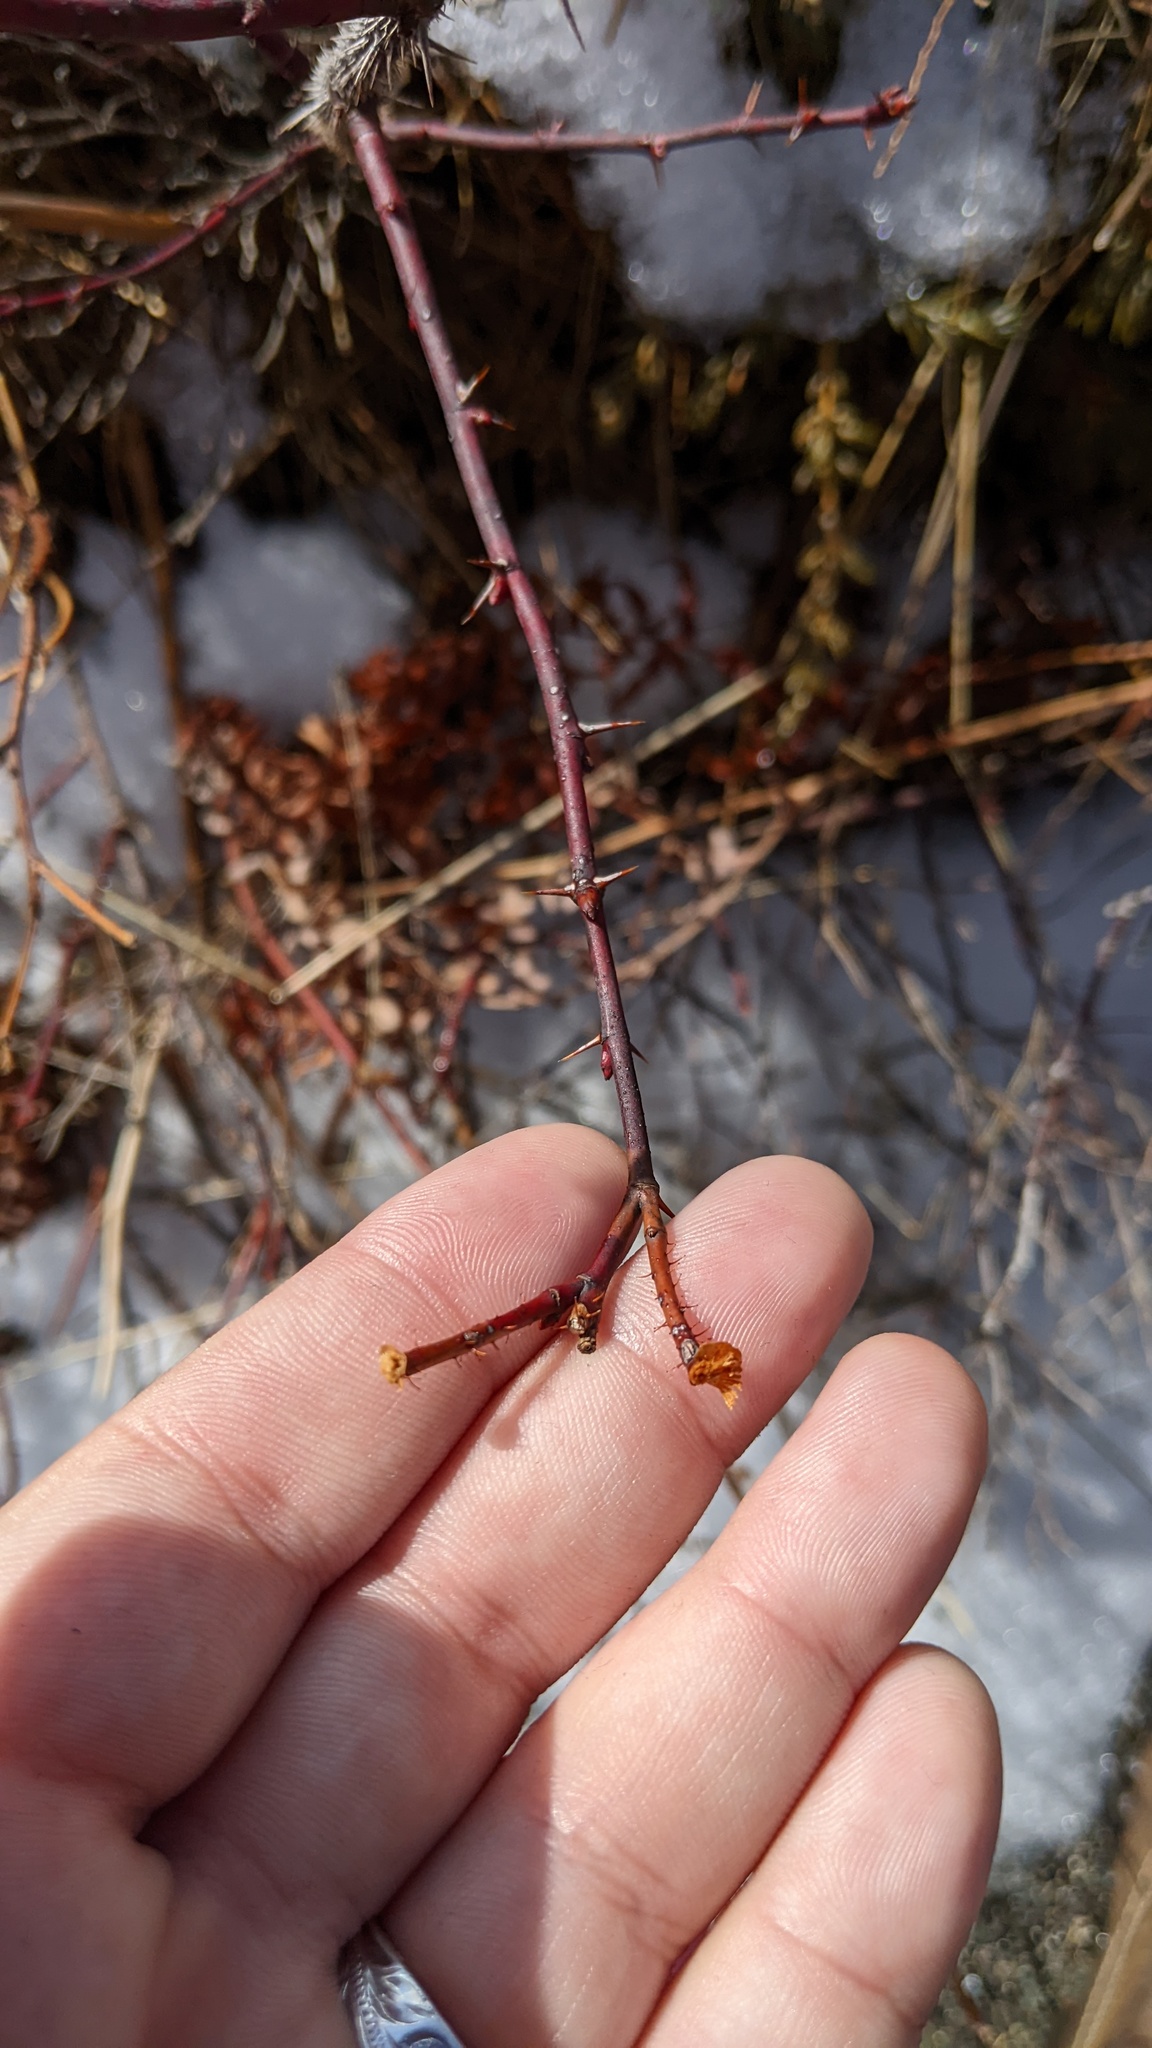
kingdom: Plantae
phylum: Tracheophyta
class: Magnoliopsida
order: Rosales
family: Rosaceae
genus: Rosa
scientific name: Rosa virginiana
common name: Virginian rose
